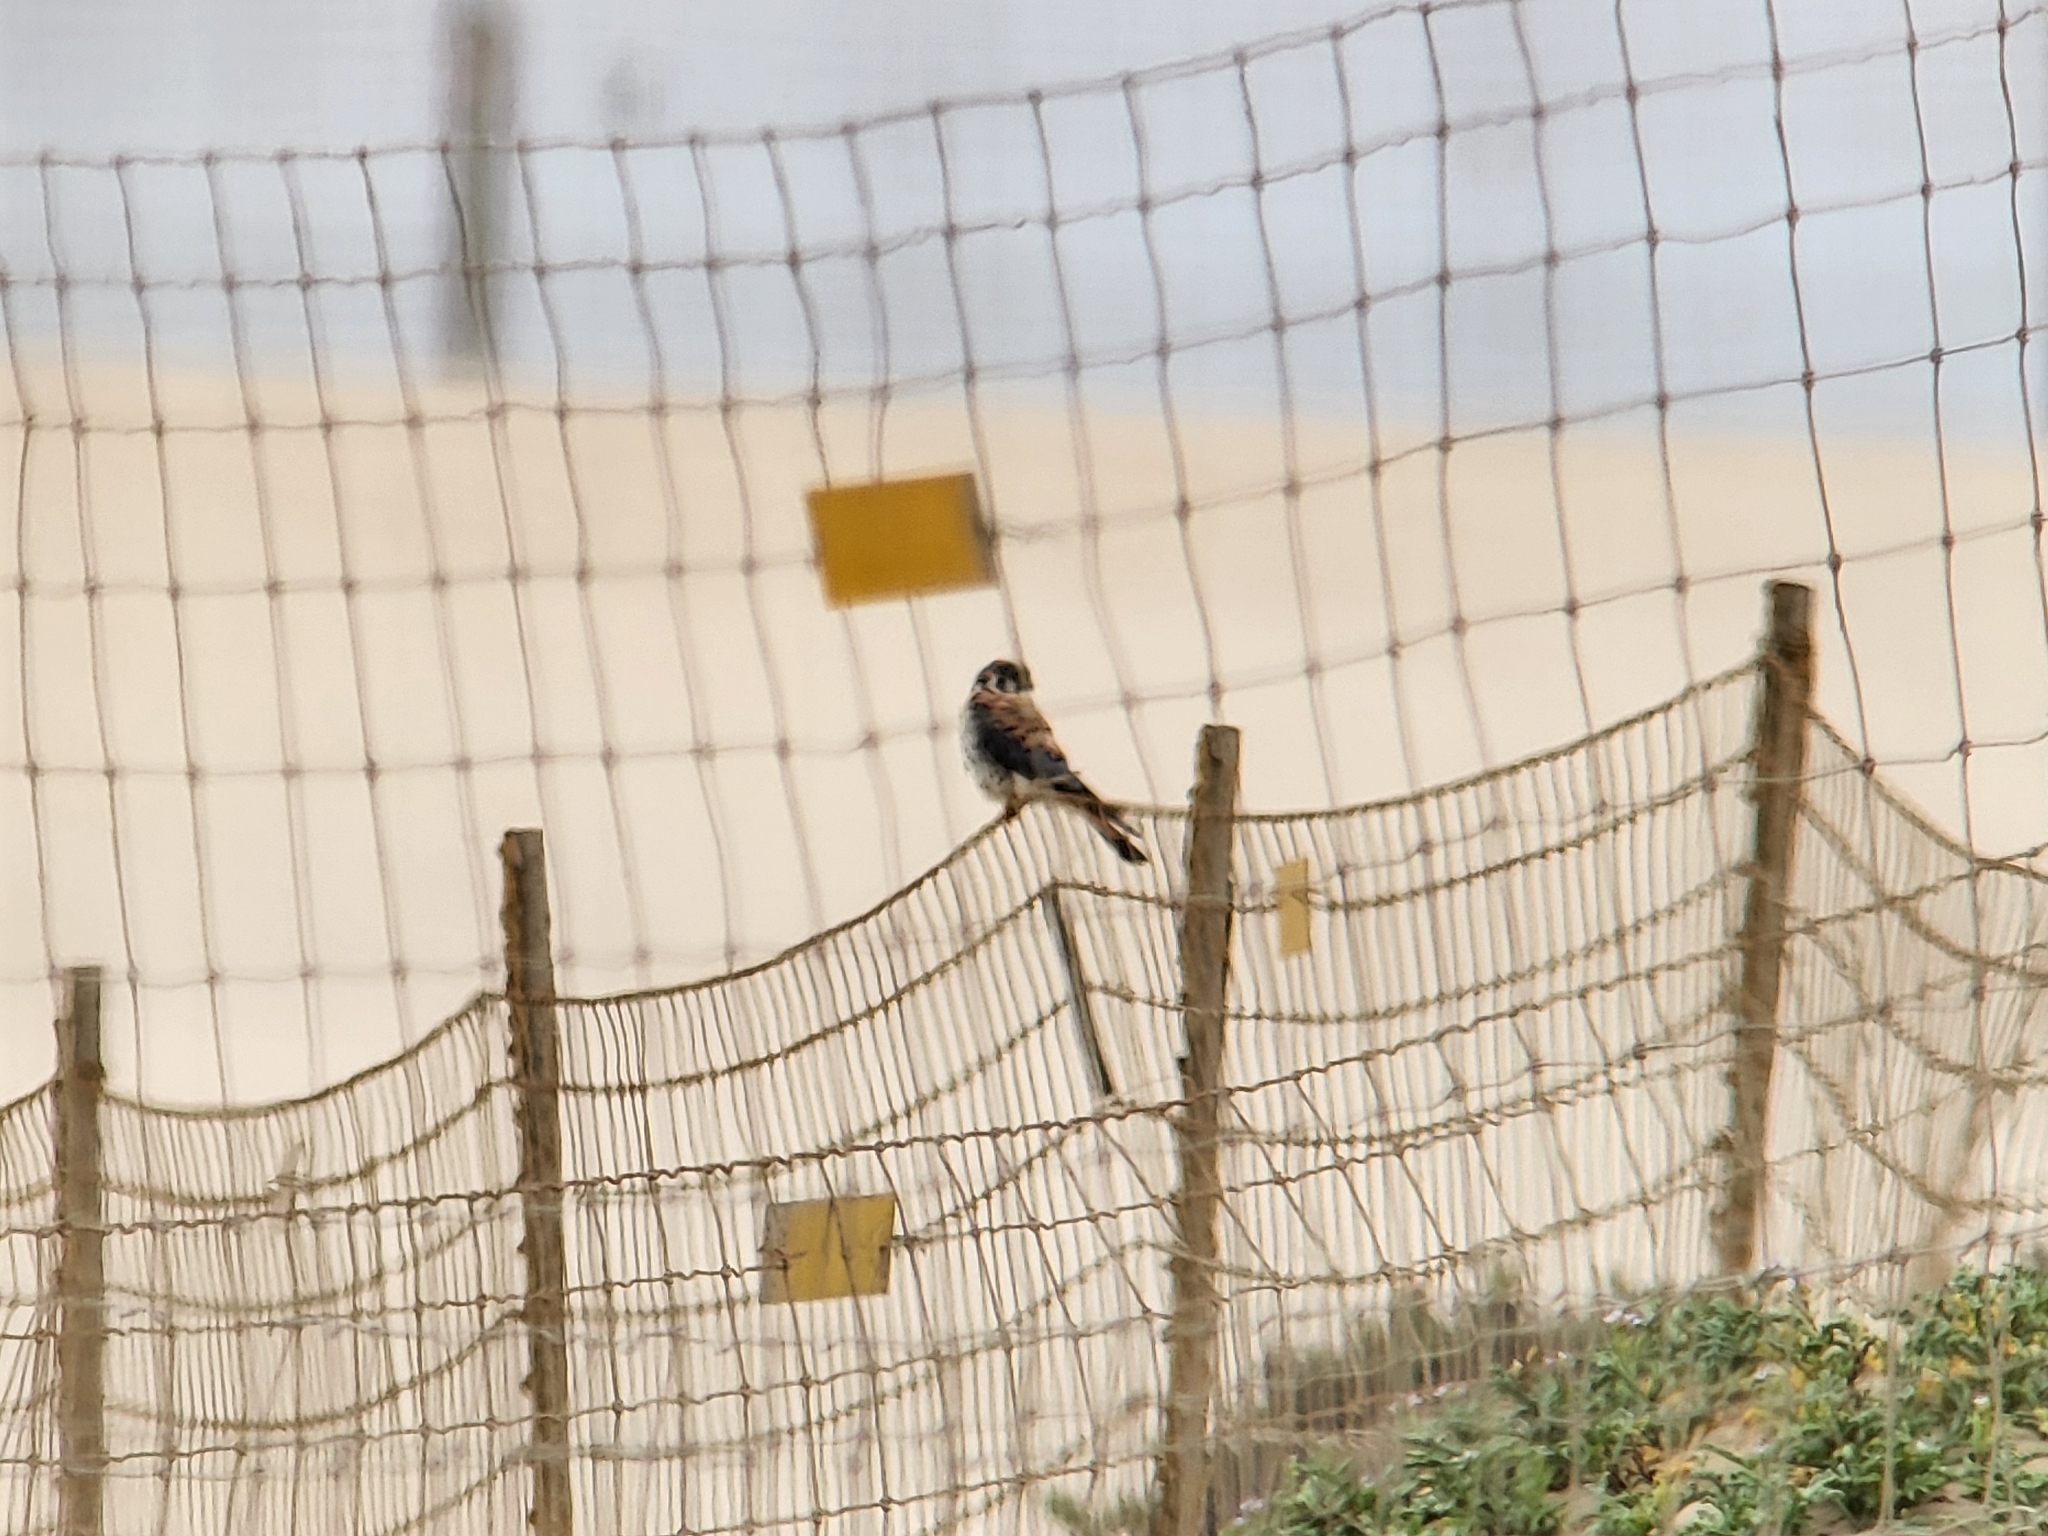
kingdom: Animalia
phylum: Chordata
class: Aves
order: Falconiformes
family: Falconidae
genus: Falco
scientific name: Falco sparverius
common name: American kestrel
